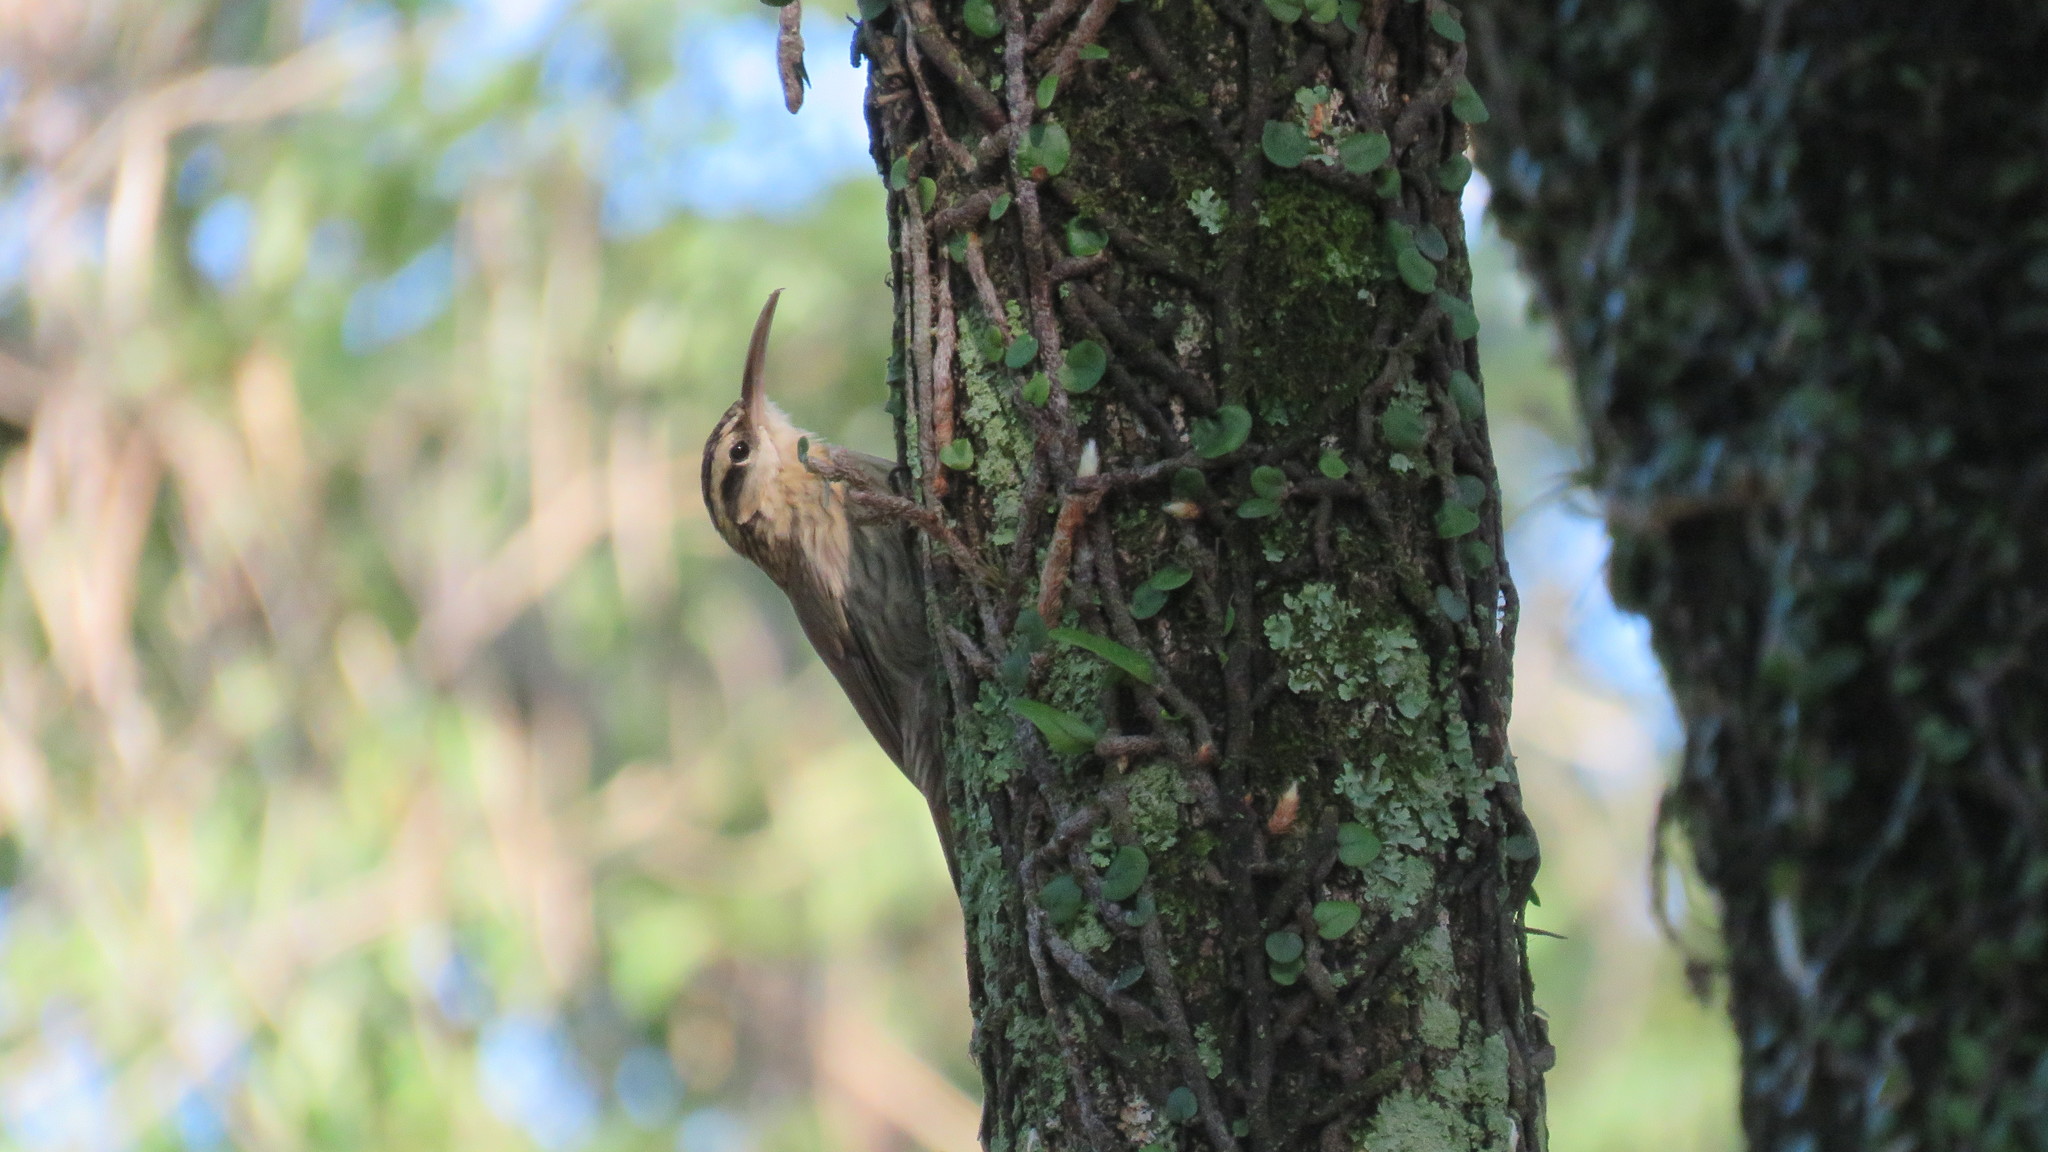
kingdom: Animalia
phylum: Chordata
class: Aves
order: Passeriformes
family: Furnariidae
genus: Lepidocolaptes
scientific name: Lepidocolaptes angustirostris
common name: Narrow-billed woodcreeper
